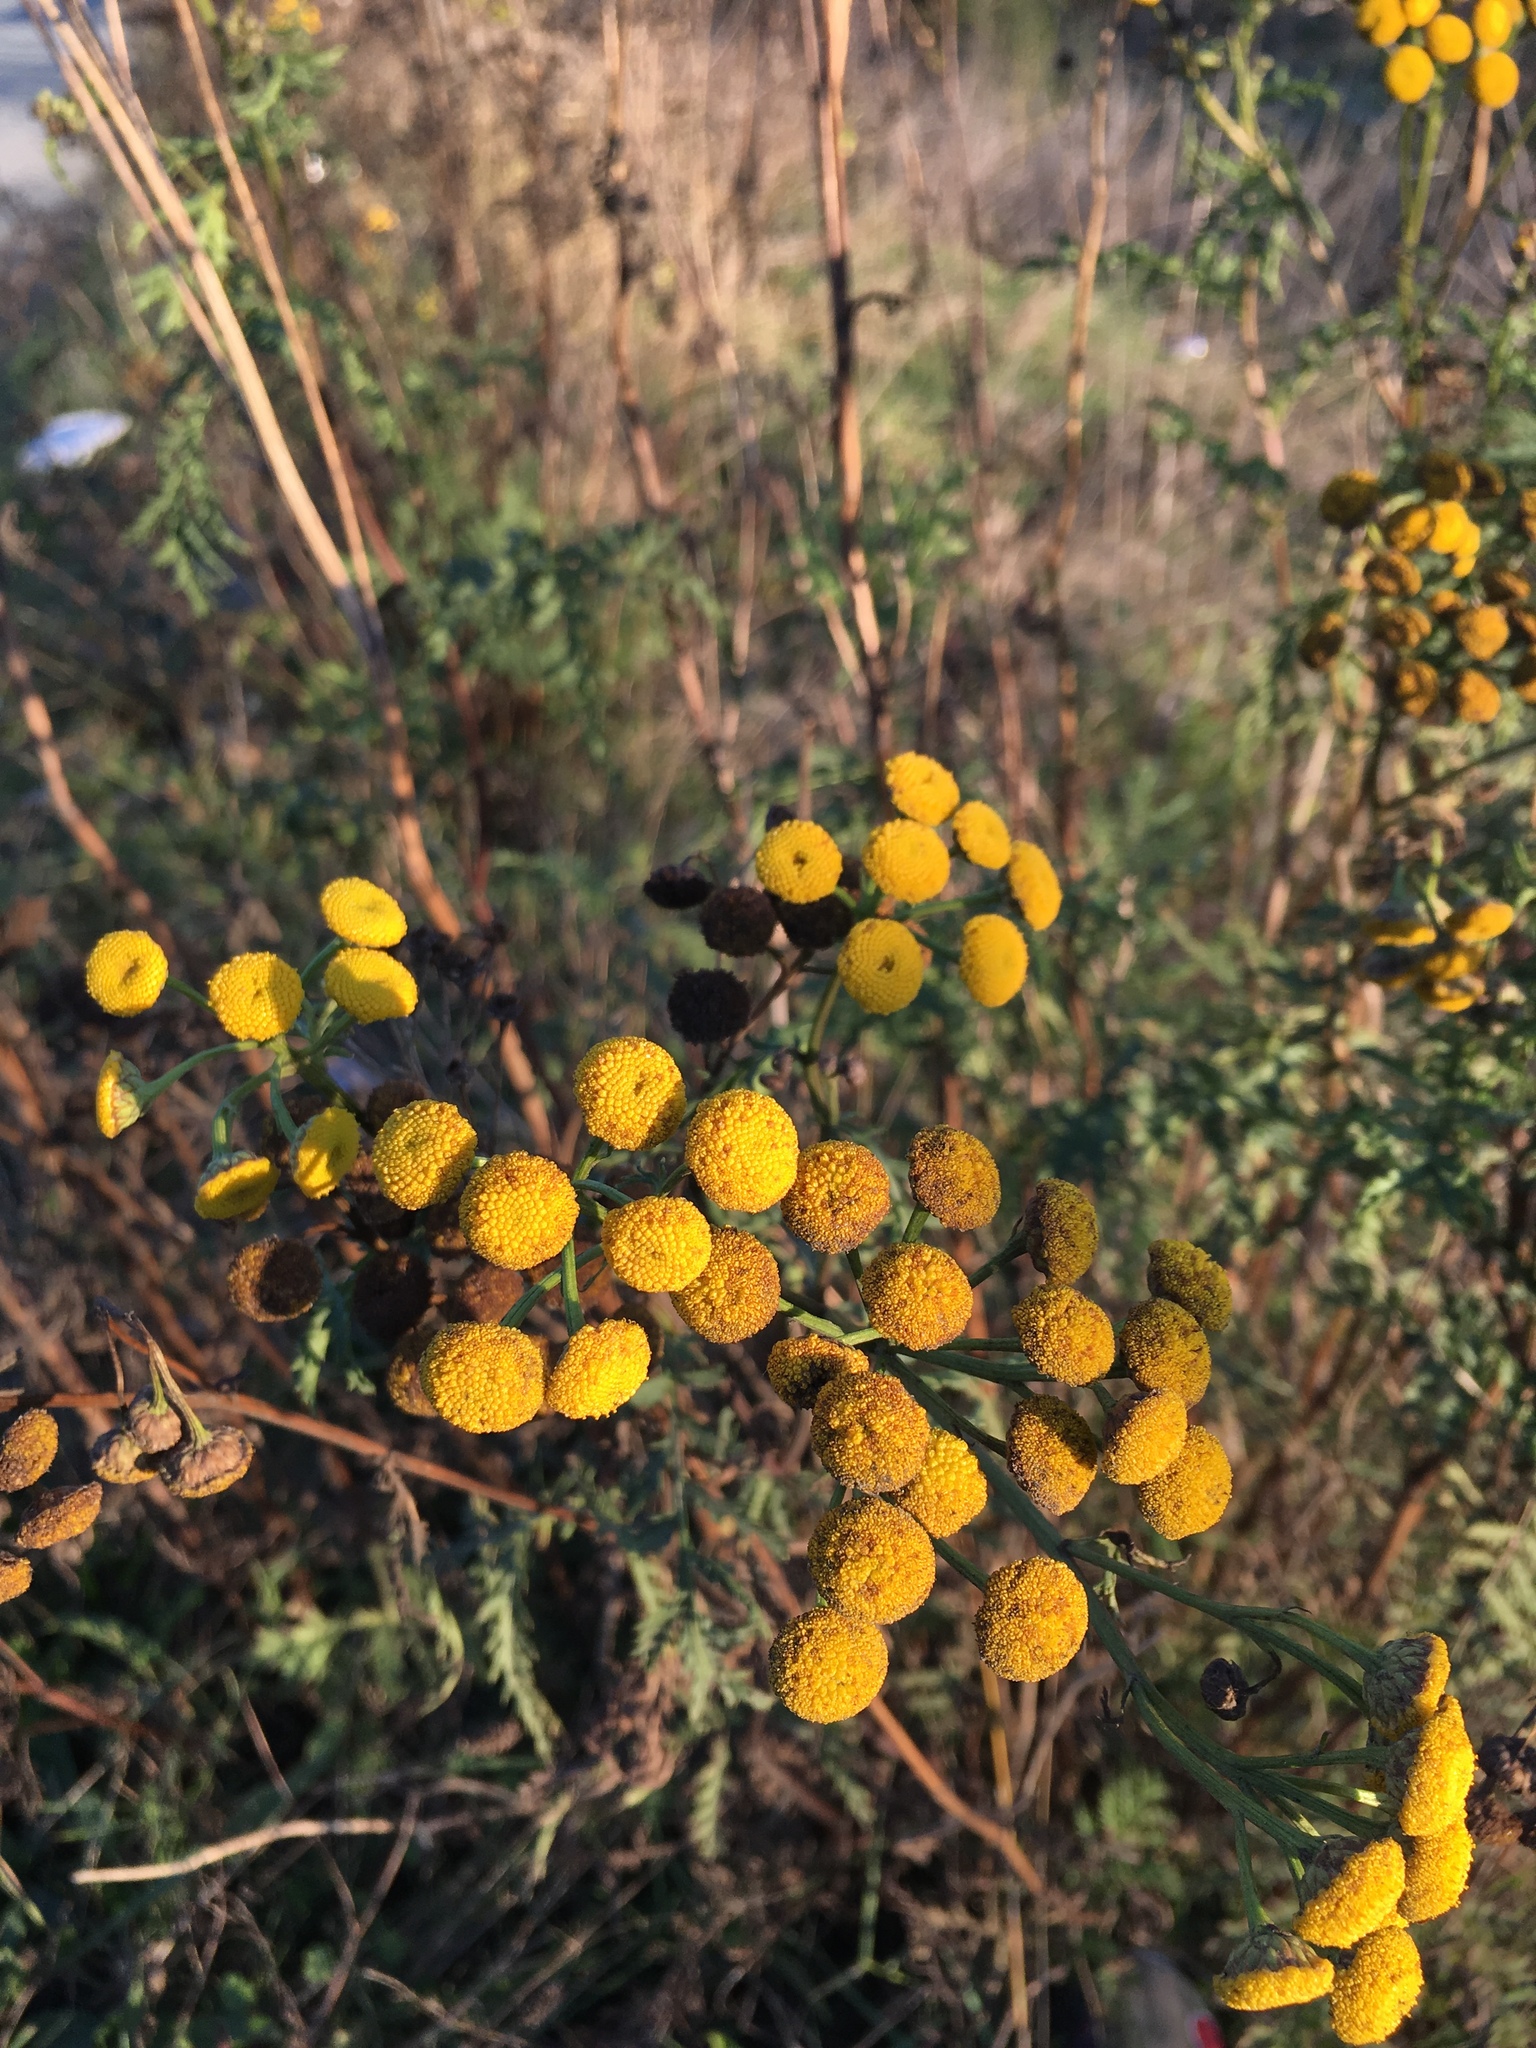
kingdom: Plantae
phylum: Tracheophyta
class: Magnoliopsida
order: Asterales
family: Asteraceae
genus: Tanacetum
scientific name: Tanacetum vulgare
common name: Common tansy
